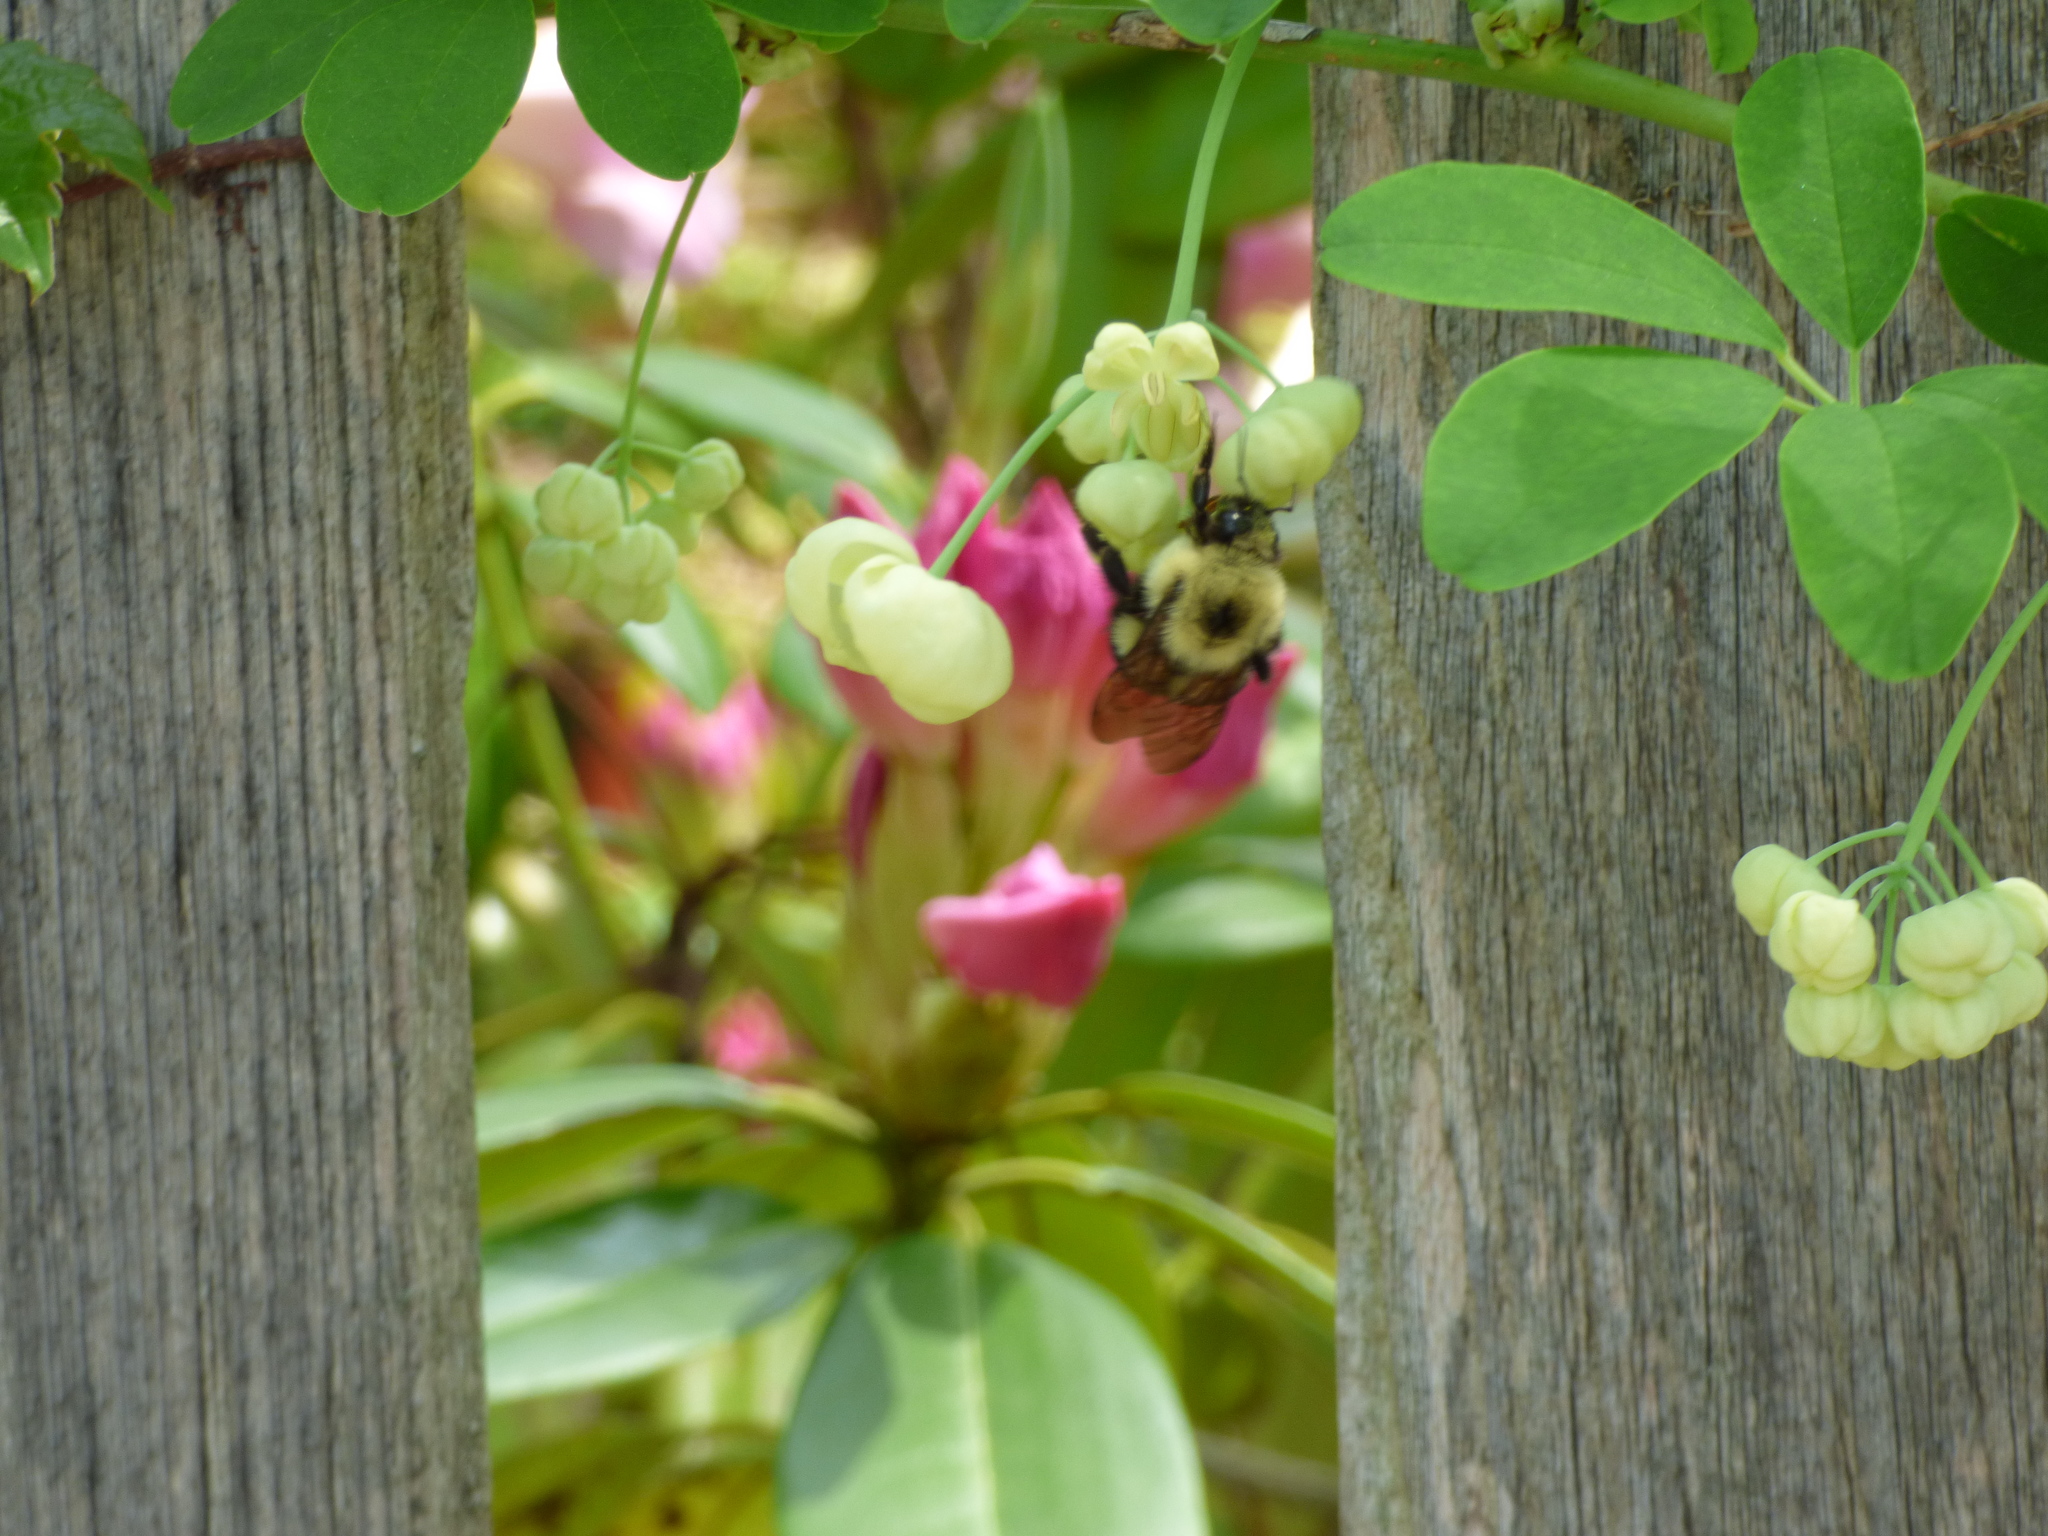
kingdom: Animalia
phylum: Arthropoda
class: Insecta
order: Hymenoptera
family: Apidae
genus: Bombus
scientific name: Bombus bimaculatus
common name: Two-spotted bumble bee
